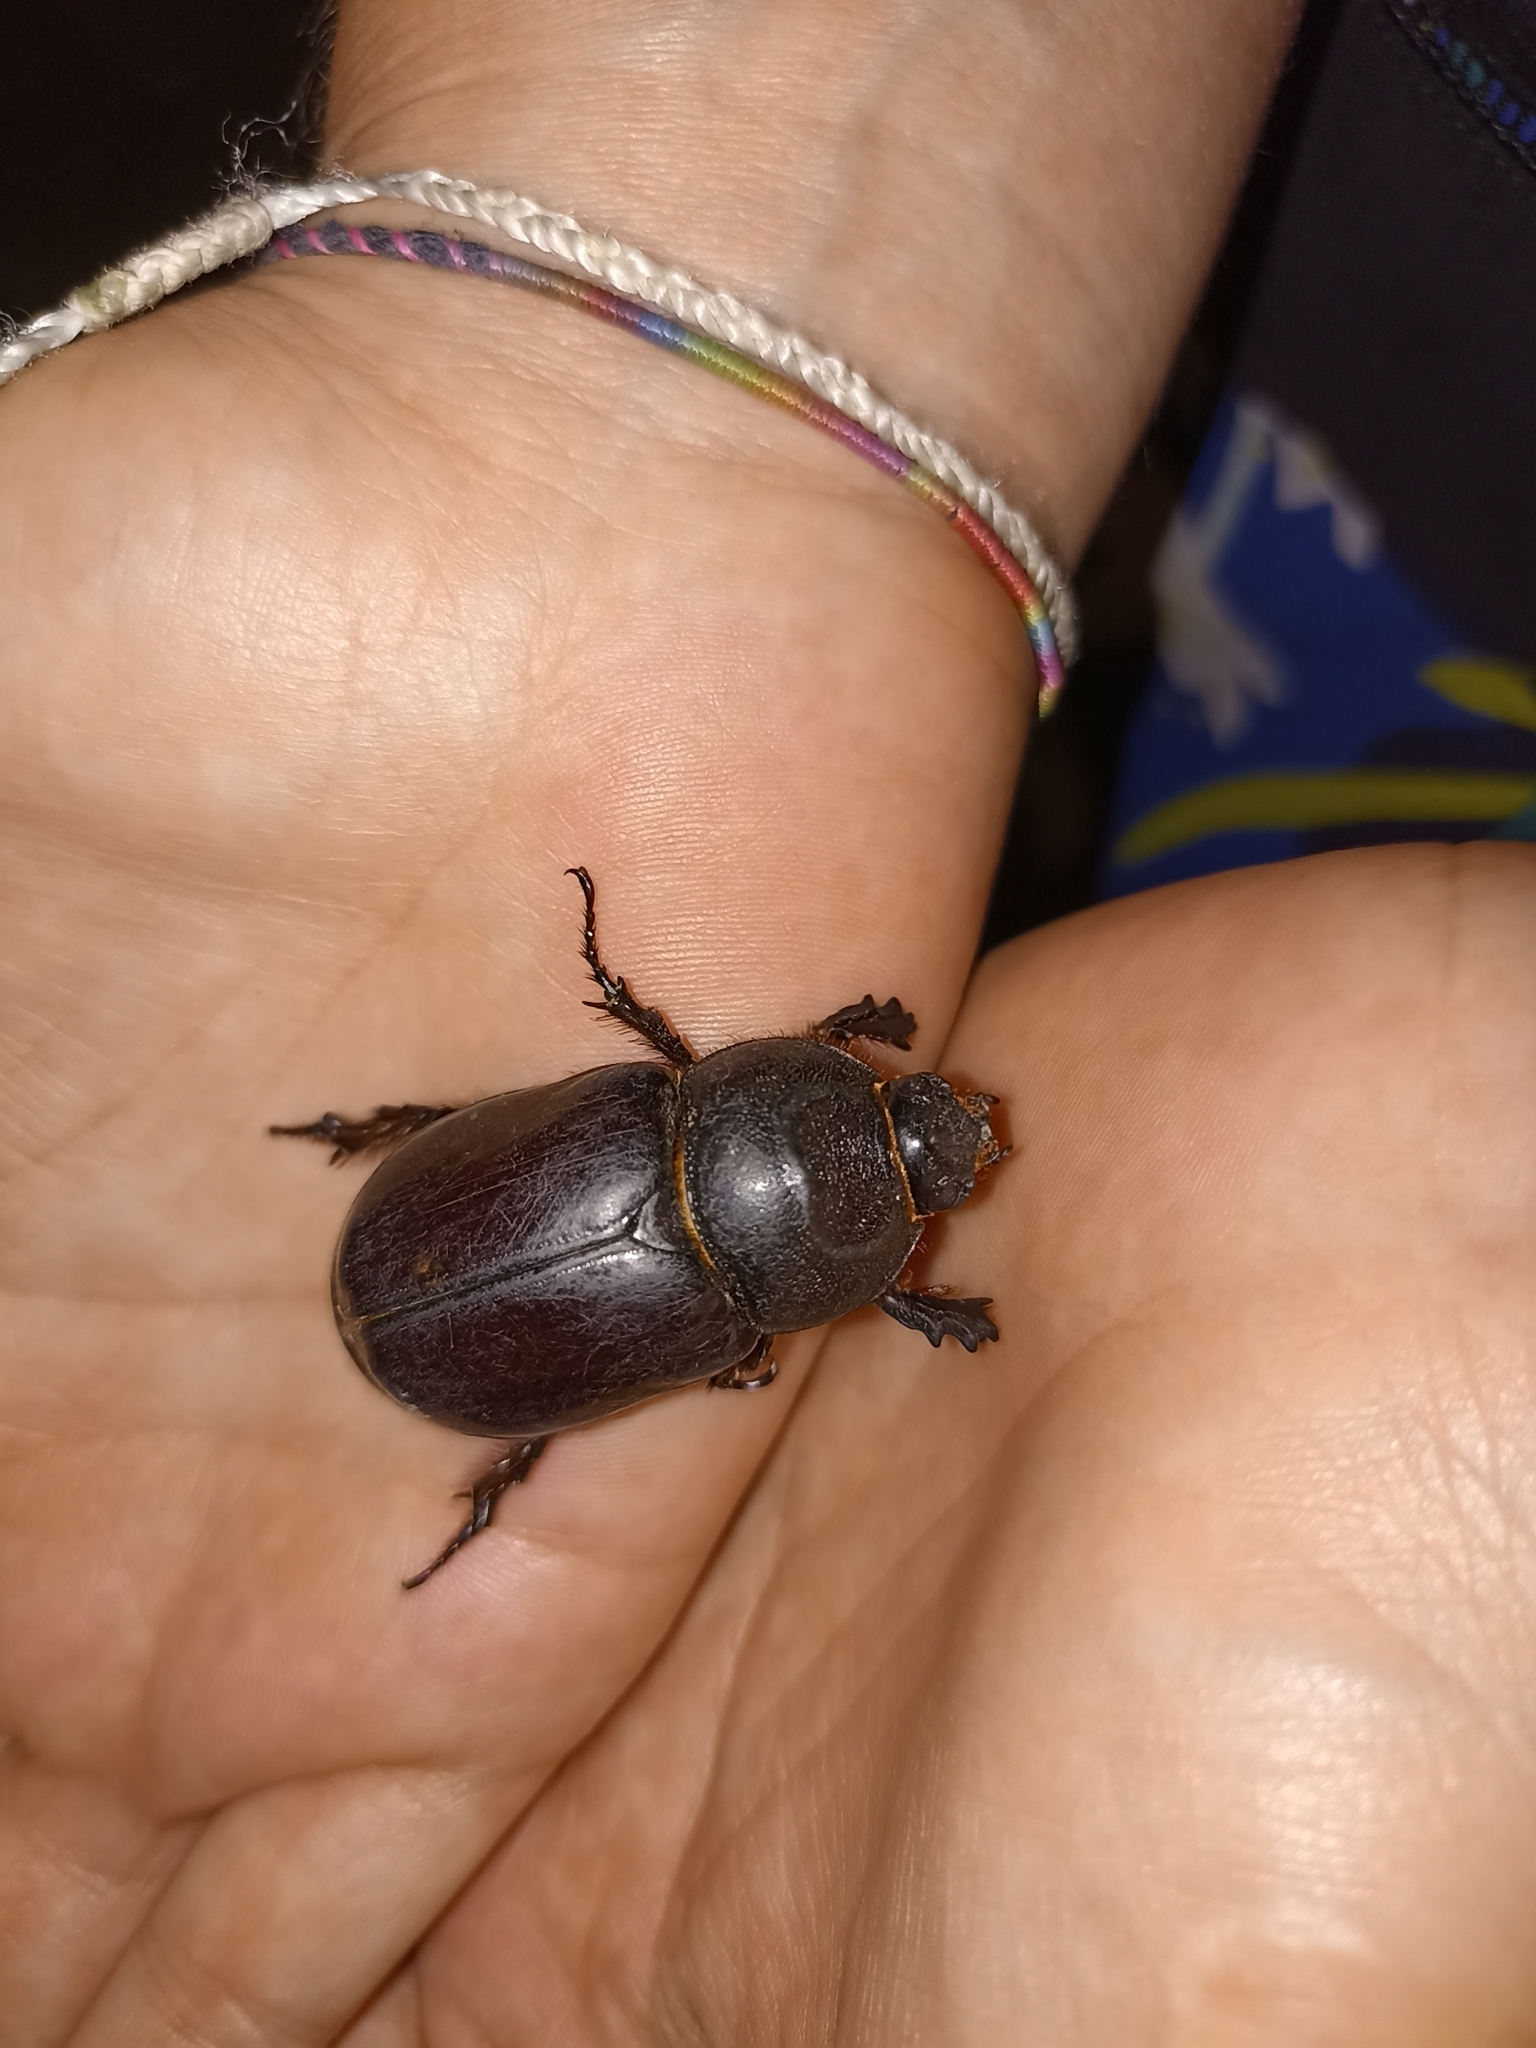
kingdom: Animalia
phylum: Arthropoda
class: Insecta
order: Coleoptera
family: Scarabaeidae
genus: Oryctes
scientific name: Oryctes nasicornis
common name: European rhinoceros beetle
